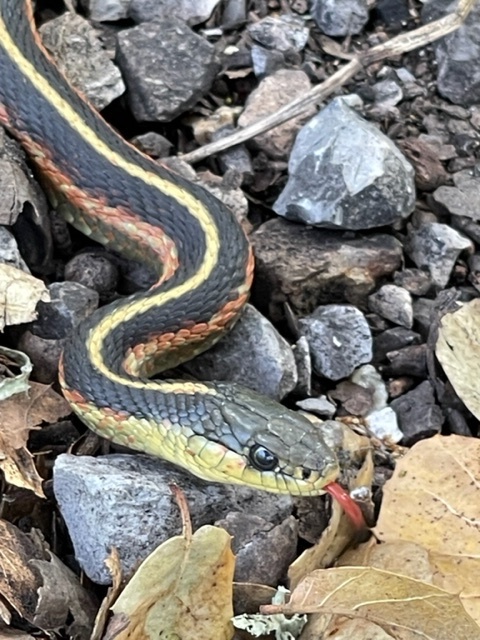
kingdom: Animalia
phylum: Chordata
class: Squamata
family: Colubridae
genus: Thamnophis
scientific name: Thamnophis elegans
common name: Western terrestrial garter snake
